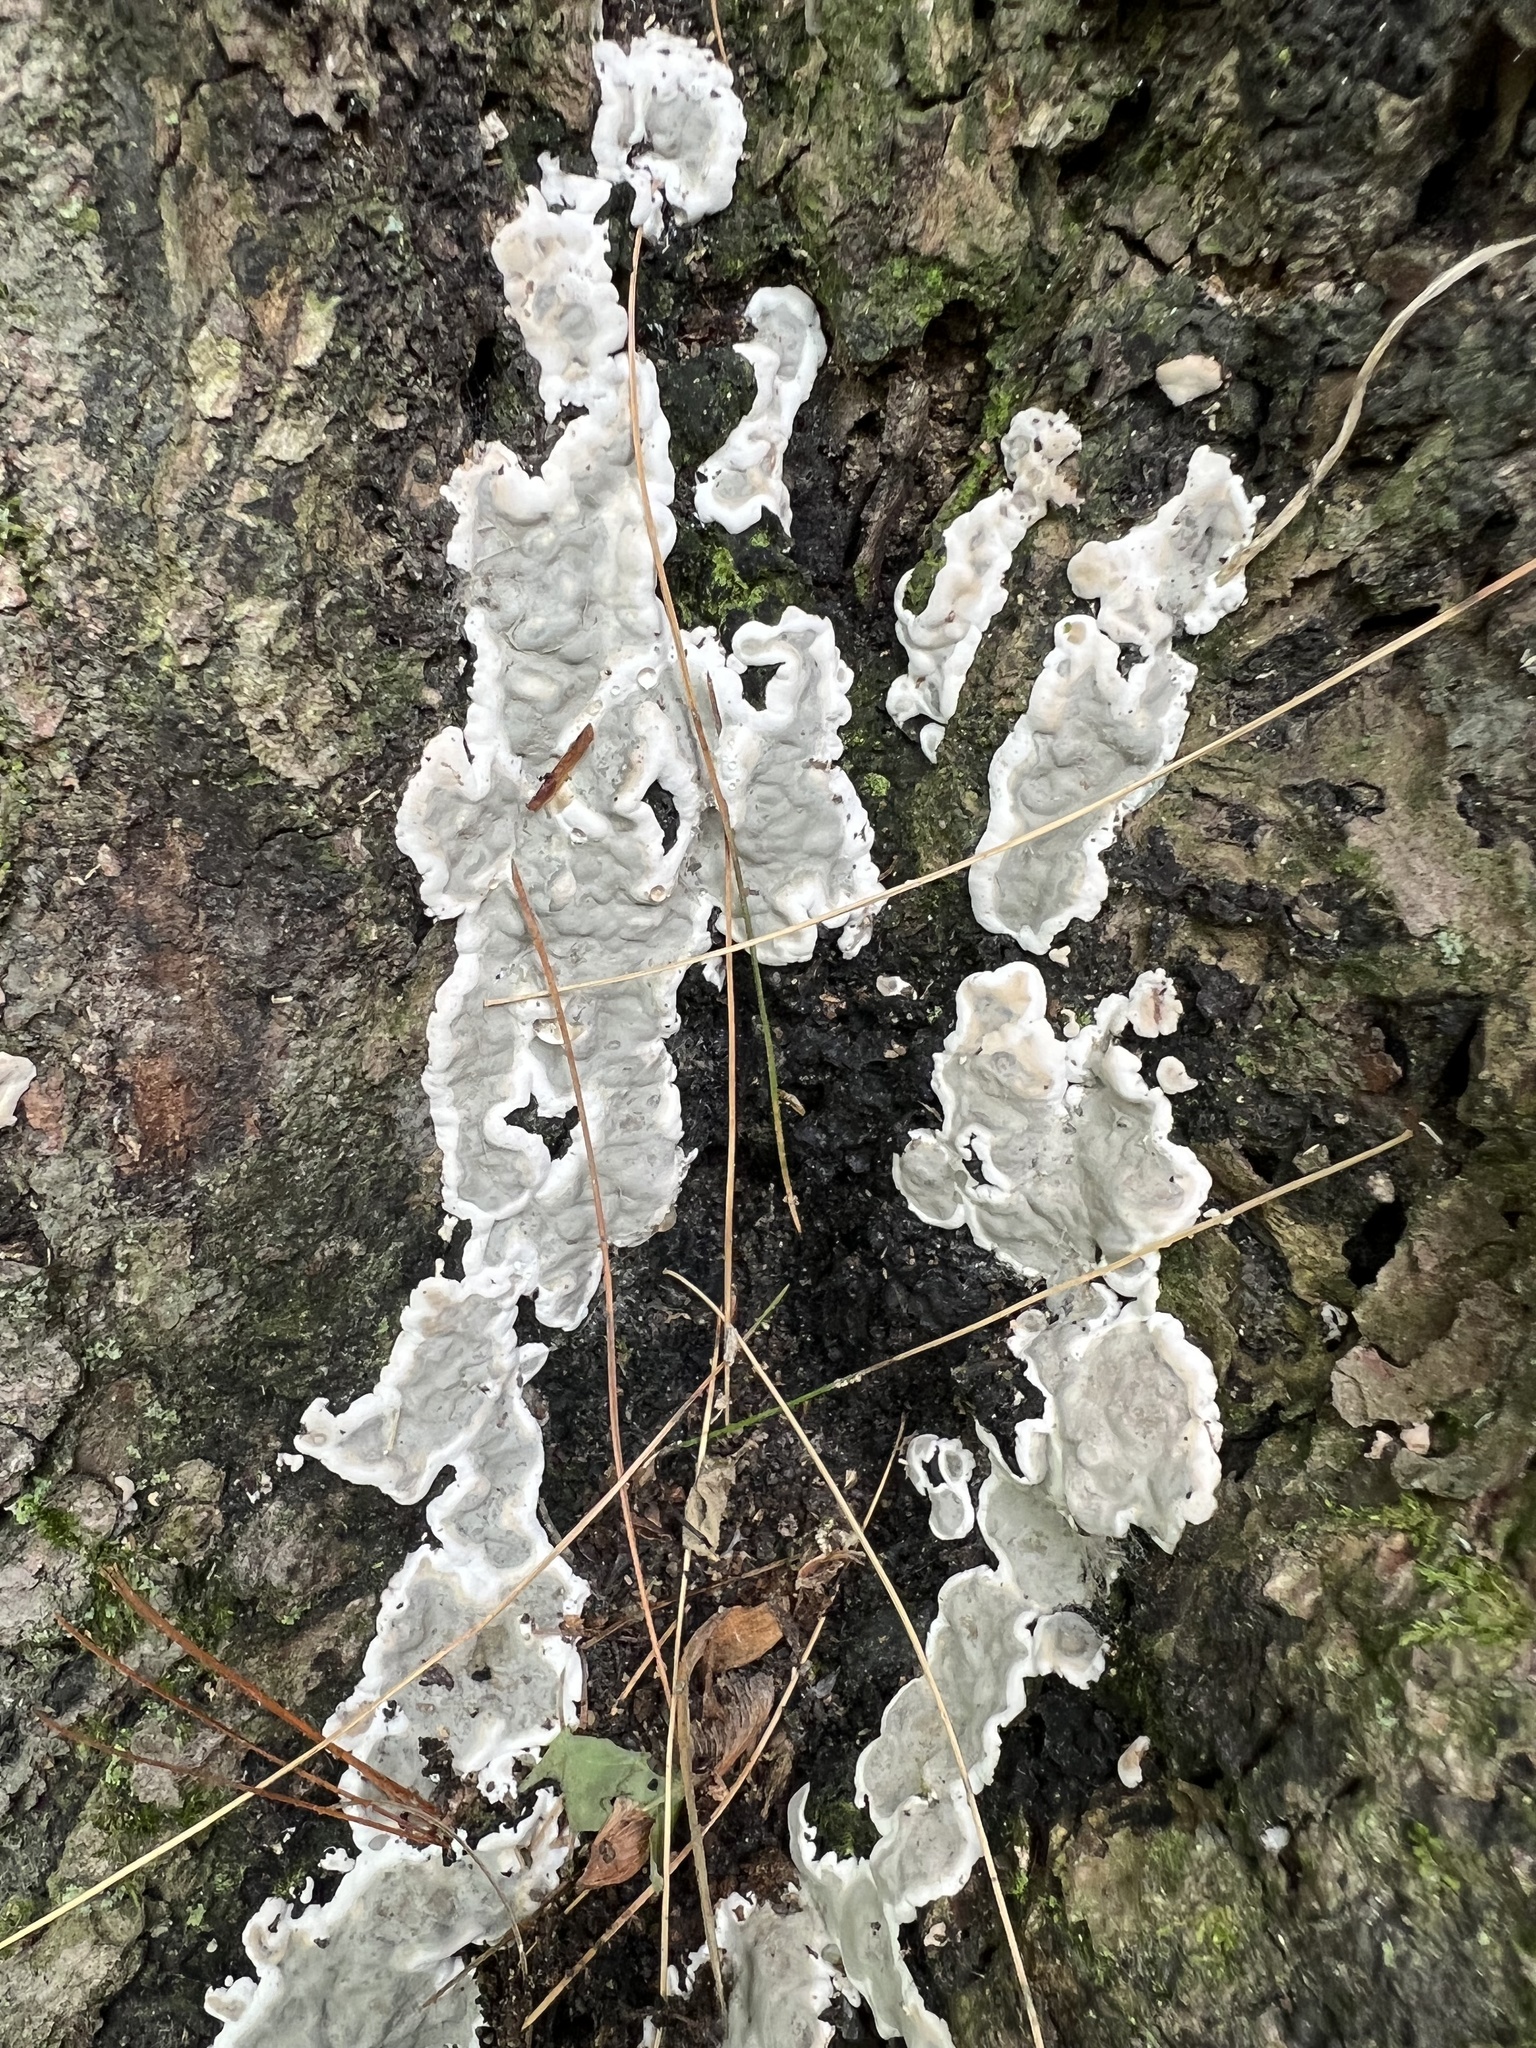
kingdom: Fungi
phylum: Ascomycota
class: Sordariomycetes
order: Xylariales
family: Xylariaceae
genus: Kretzschmaria
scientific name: Kretzschmaria deusta
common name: Brittle cinder
